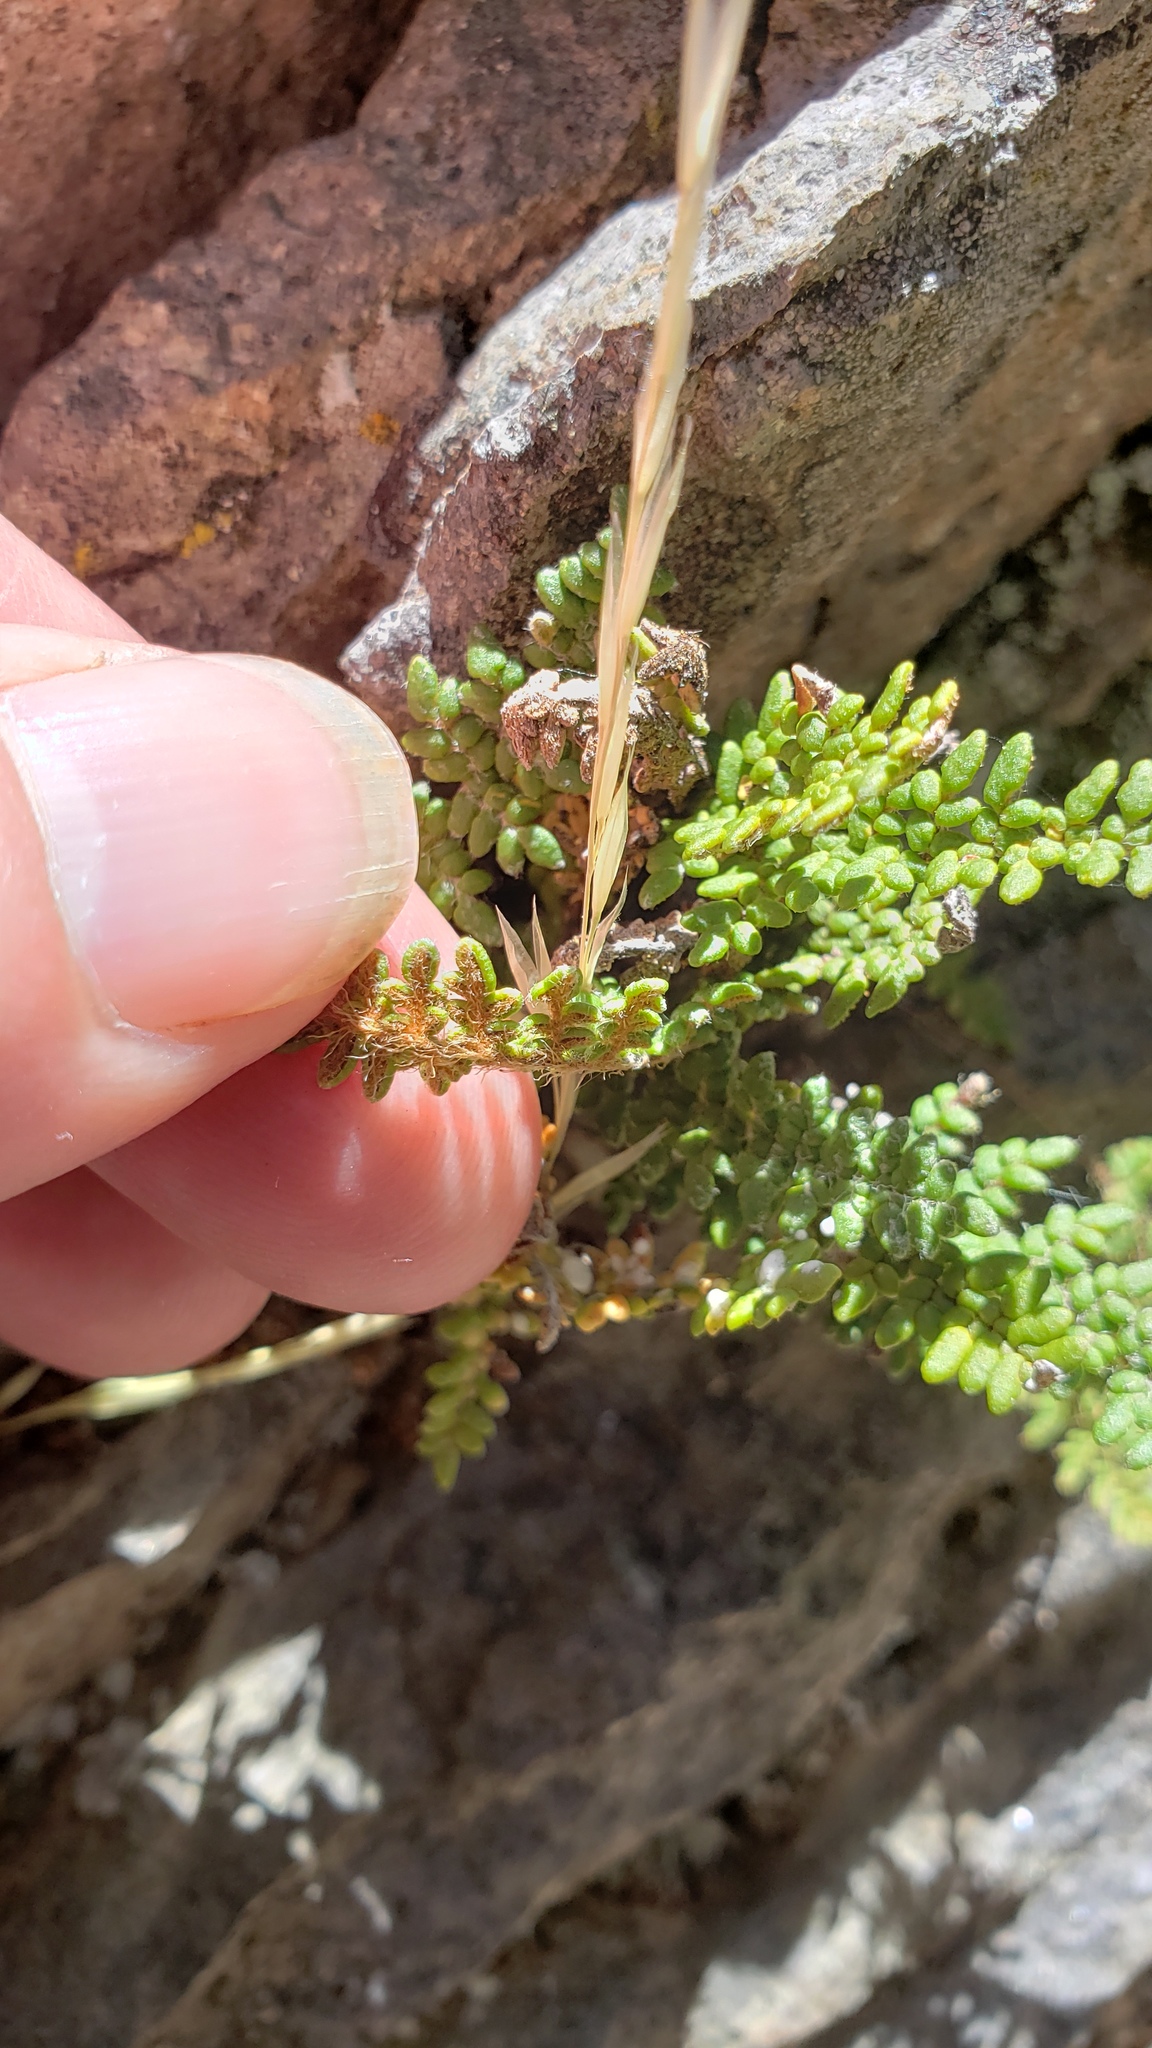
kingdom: Plantae
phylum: Tracheophyta
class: Polypodiopsida
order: Polypodiales
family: Pteridaceae
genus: Myriopteris
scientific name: Myriopteris gracillima
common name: Lace fern
